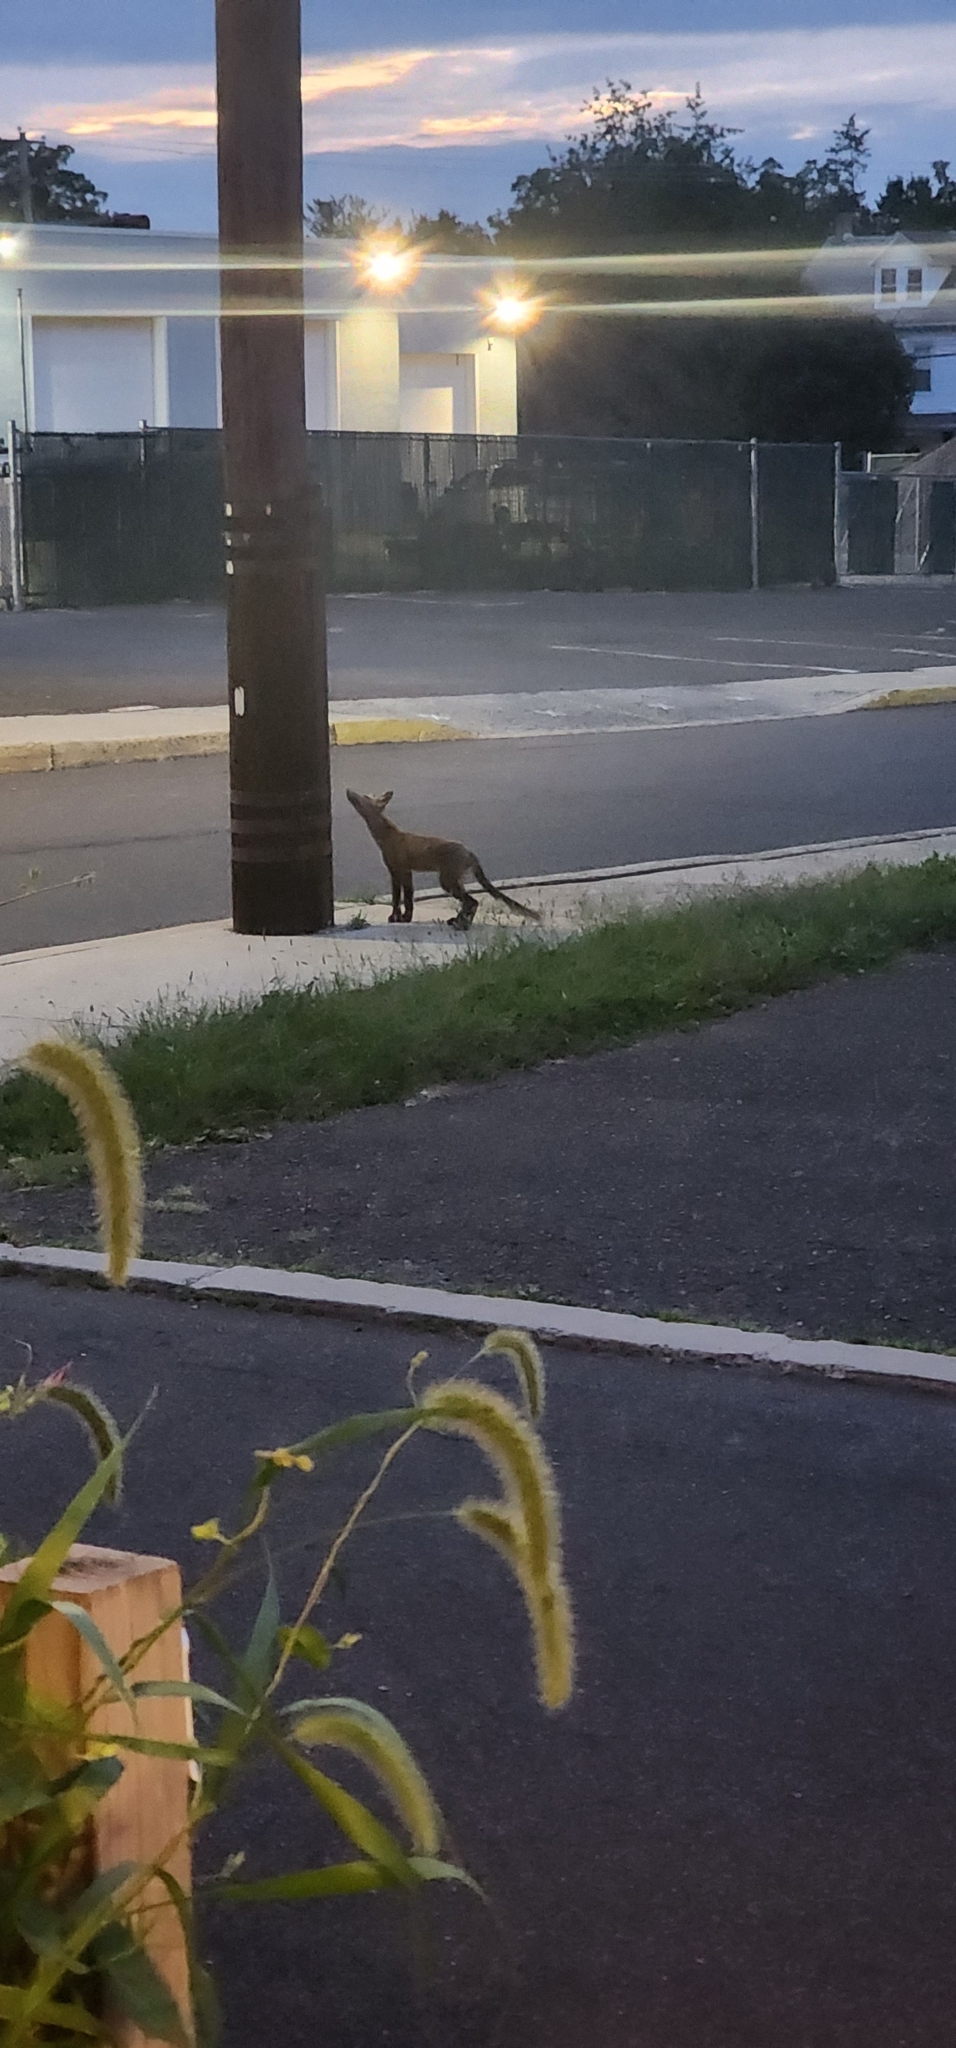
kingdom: Animalia
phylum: Chordata
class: Mammalia
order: Carnivora
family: Canidae
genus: Vulpes
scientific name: Vulpes vulpes
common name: Red fox
